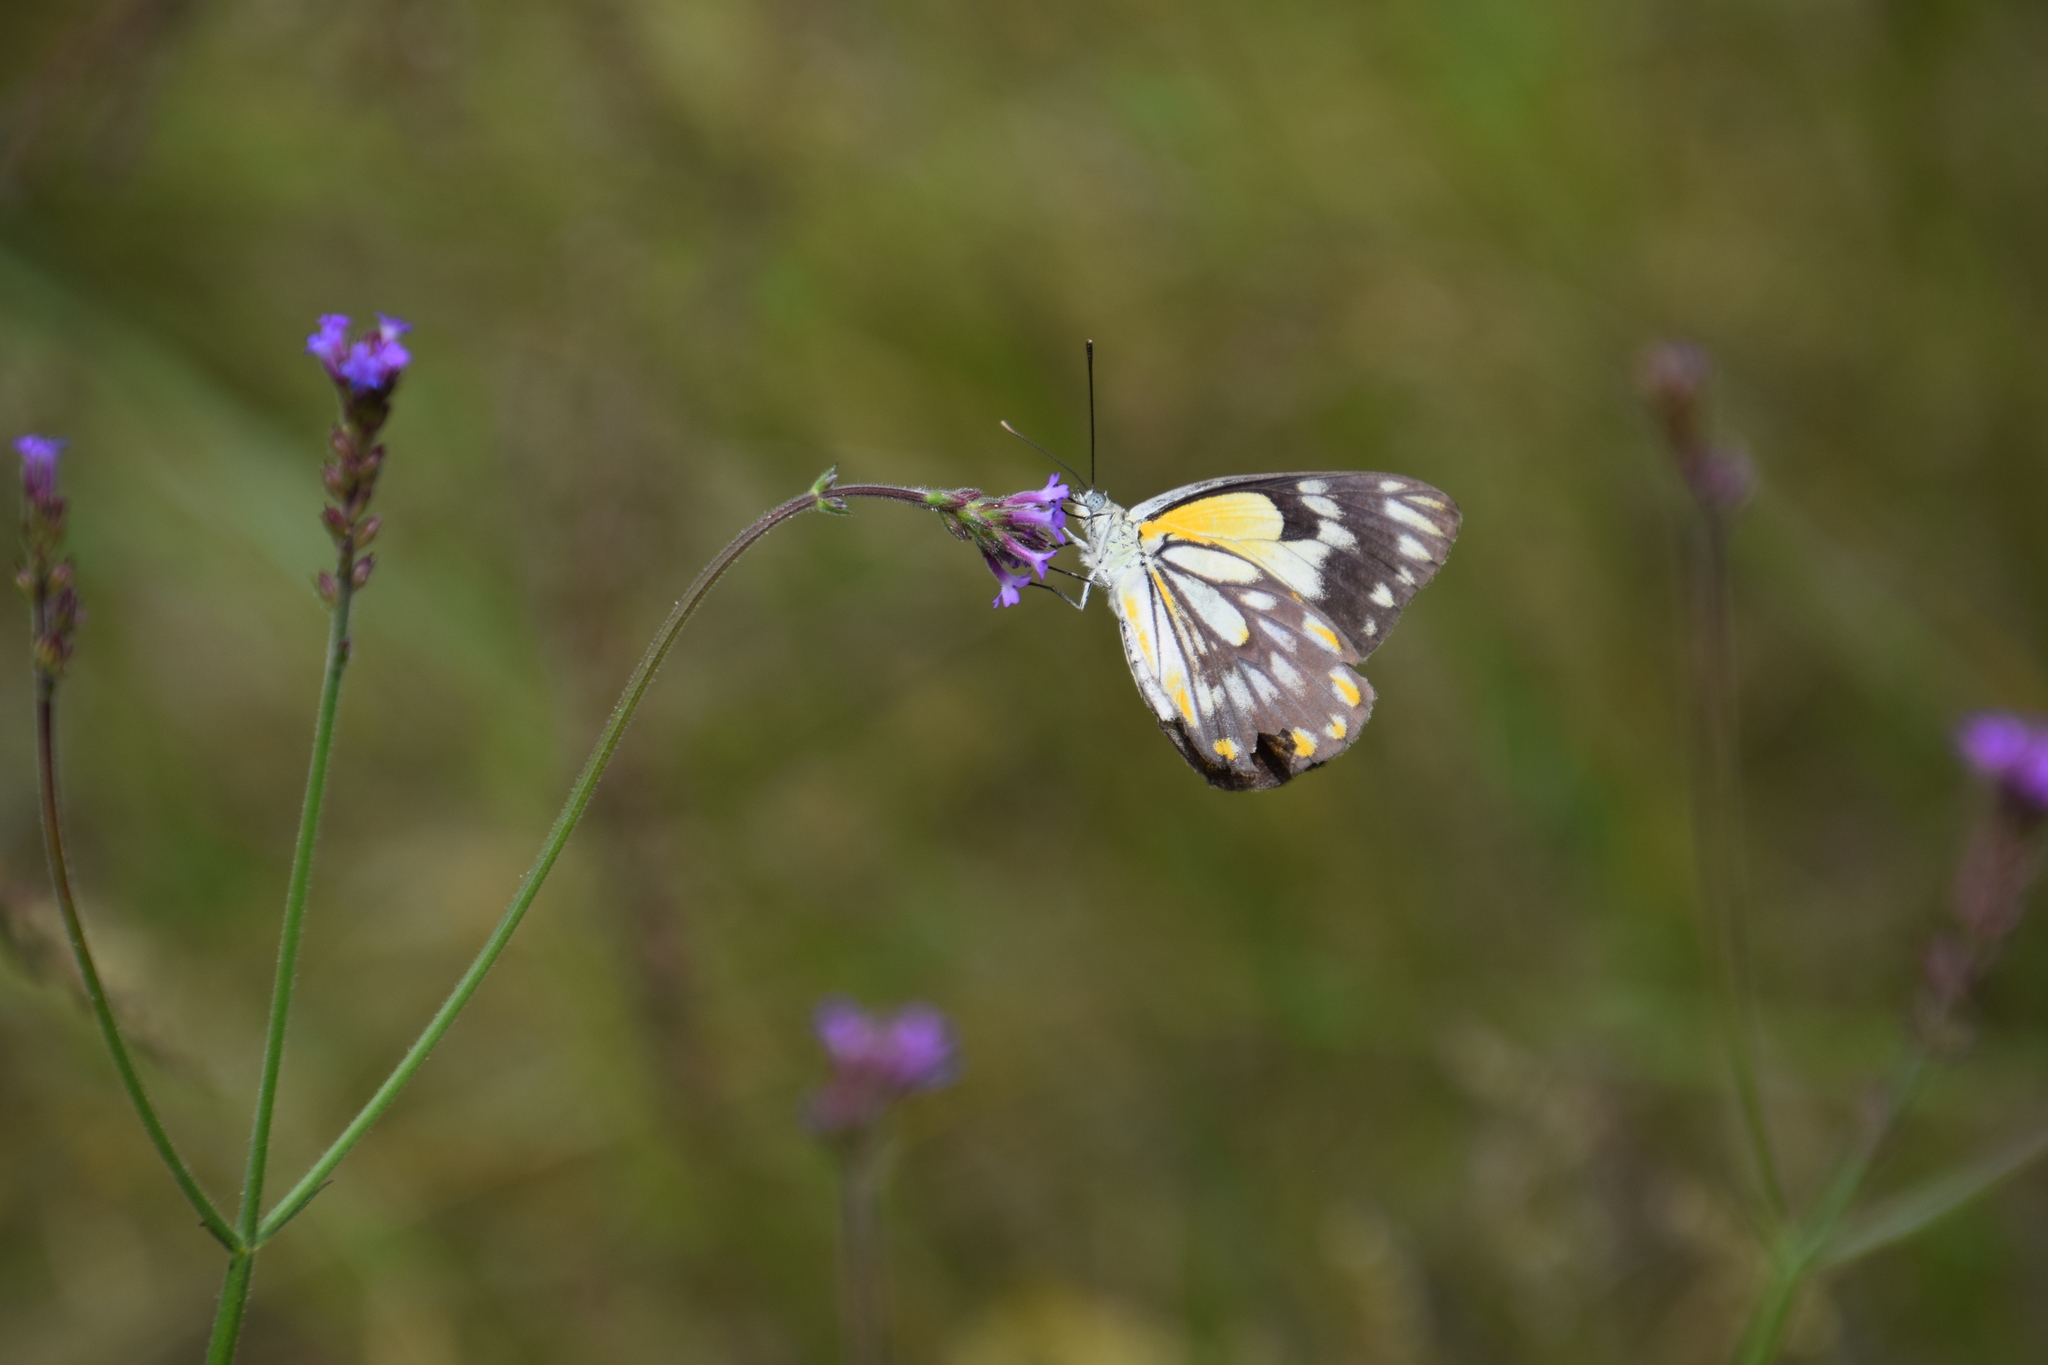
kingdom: Animalia
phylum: Arthropoda
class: Insecta
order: Lepidoptera
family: Pieridae
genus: Belenois
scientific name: Belenois java
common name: Caper white
